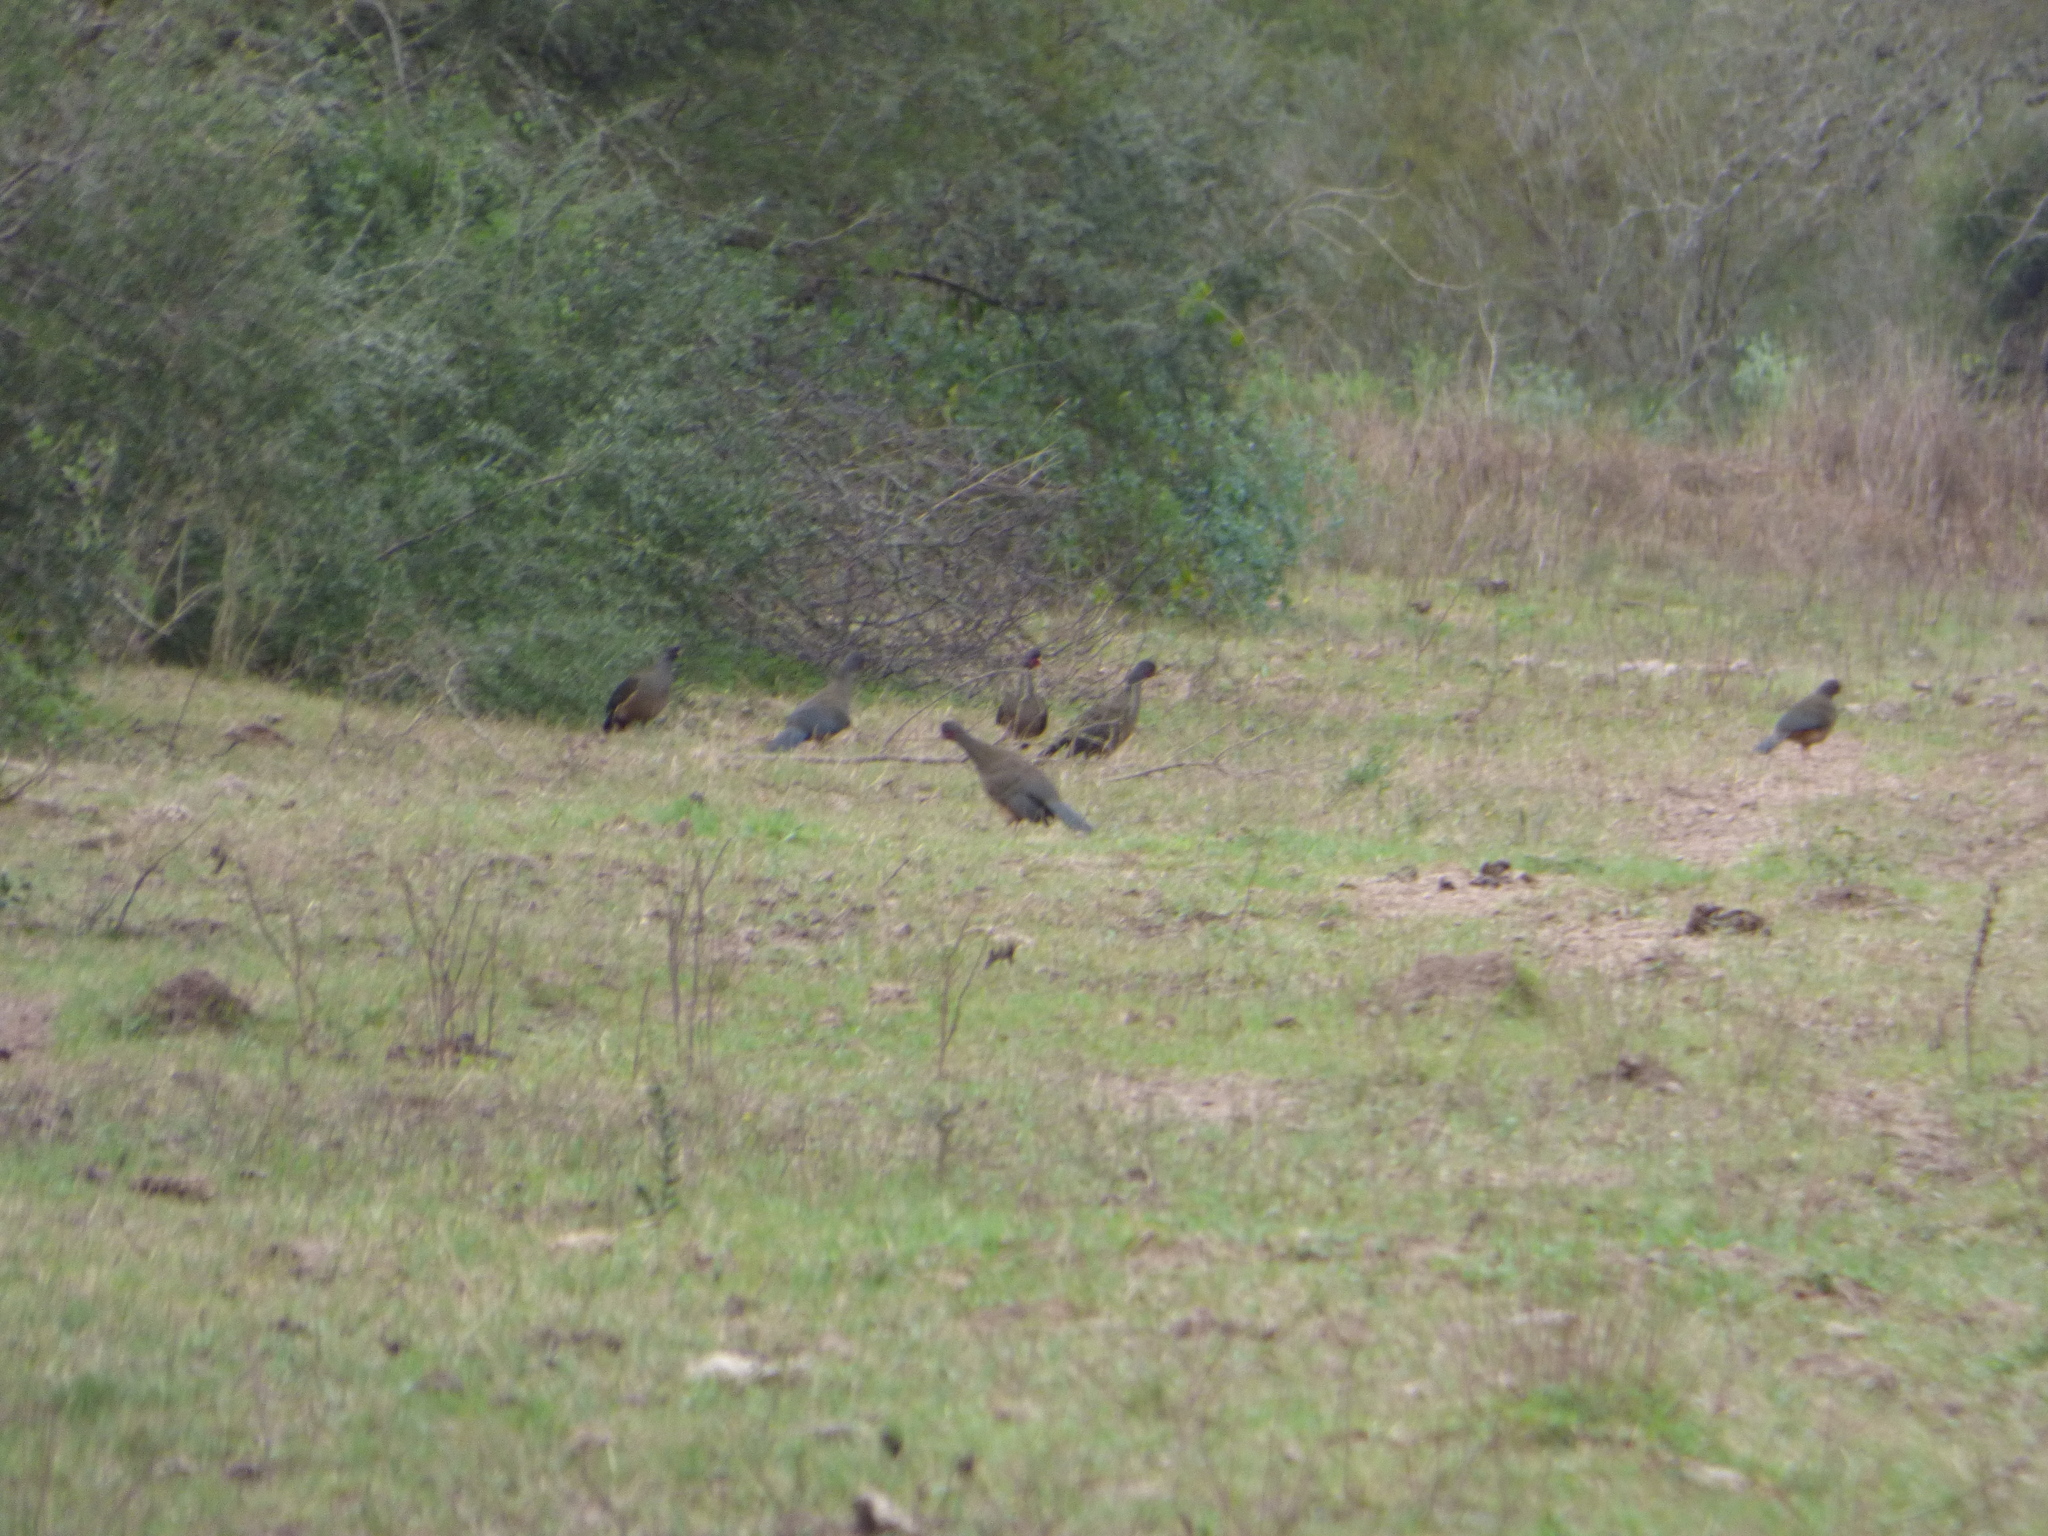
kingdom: Animalia
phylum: Chordata
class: Aves
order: Galliformes
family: Cracidae
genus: Ortalis
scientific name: Ortalis canicollis
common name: Chaco chachalaca
